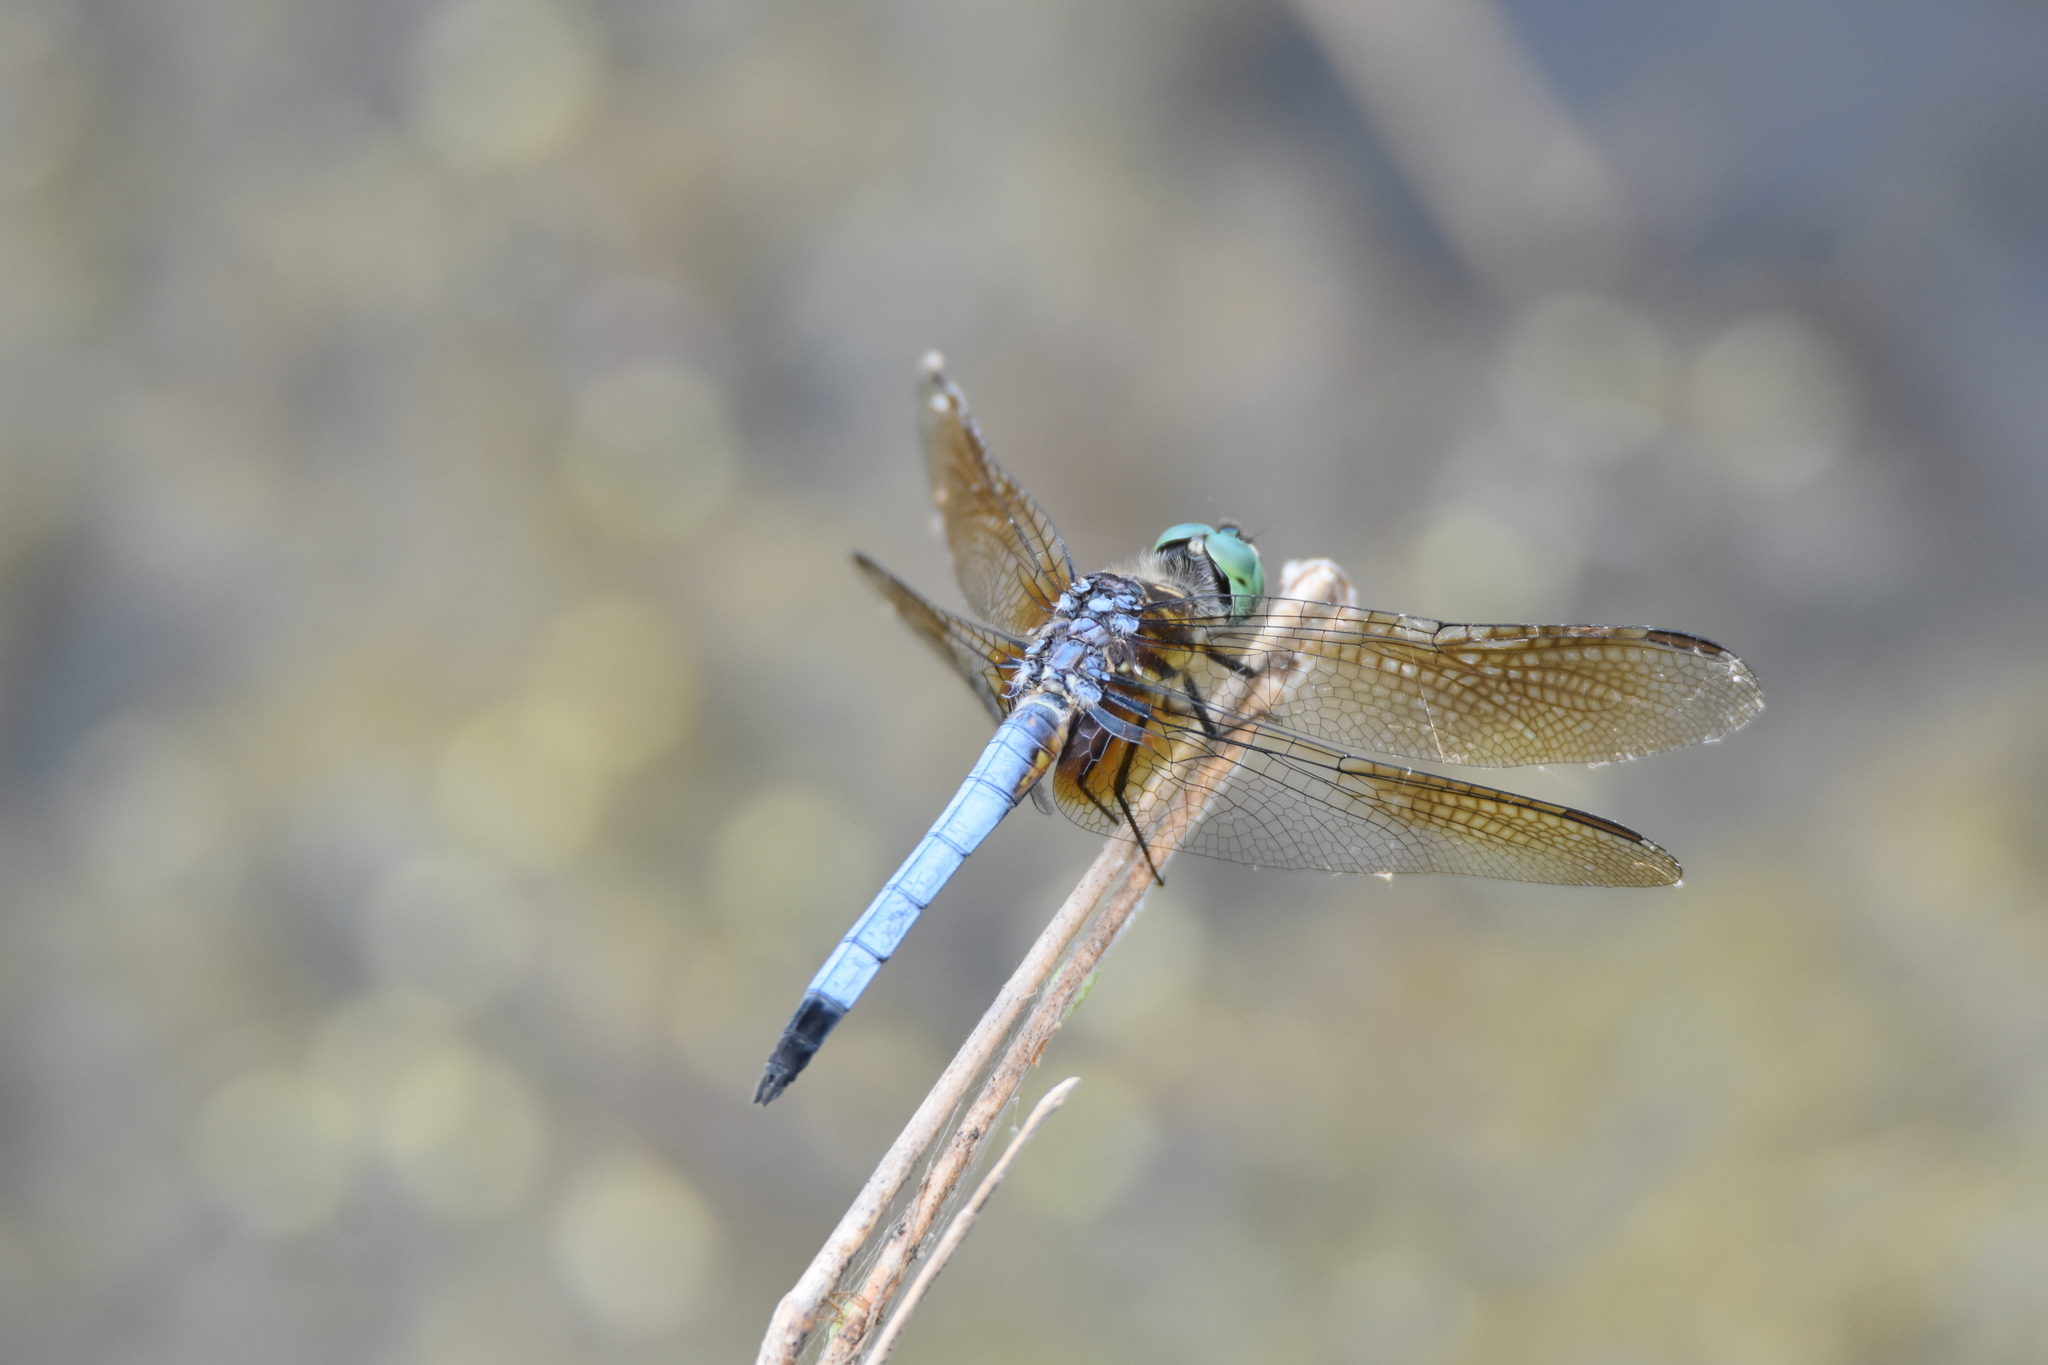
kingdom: Animalia
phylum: Arthropoda
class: Insecta
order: Odonata
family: Libellulidae
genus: Pachydiplax
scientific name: Pachydiplax longipennis
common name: Blue dasher
